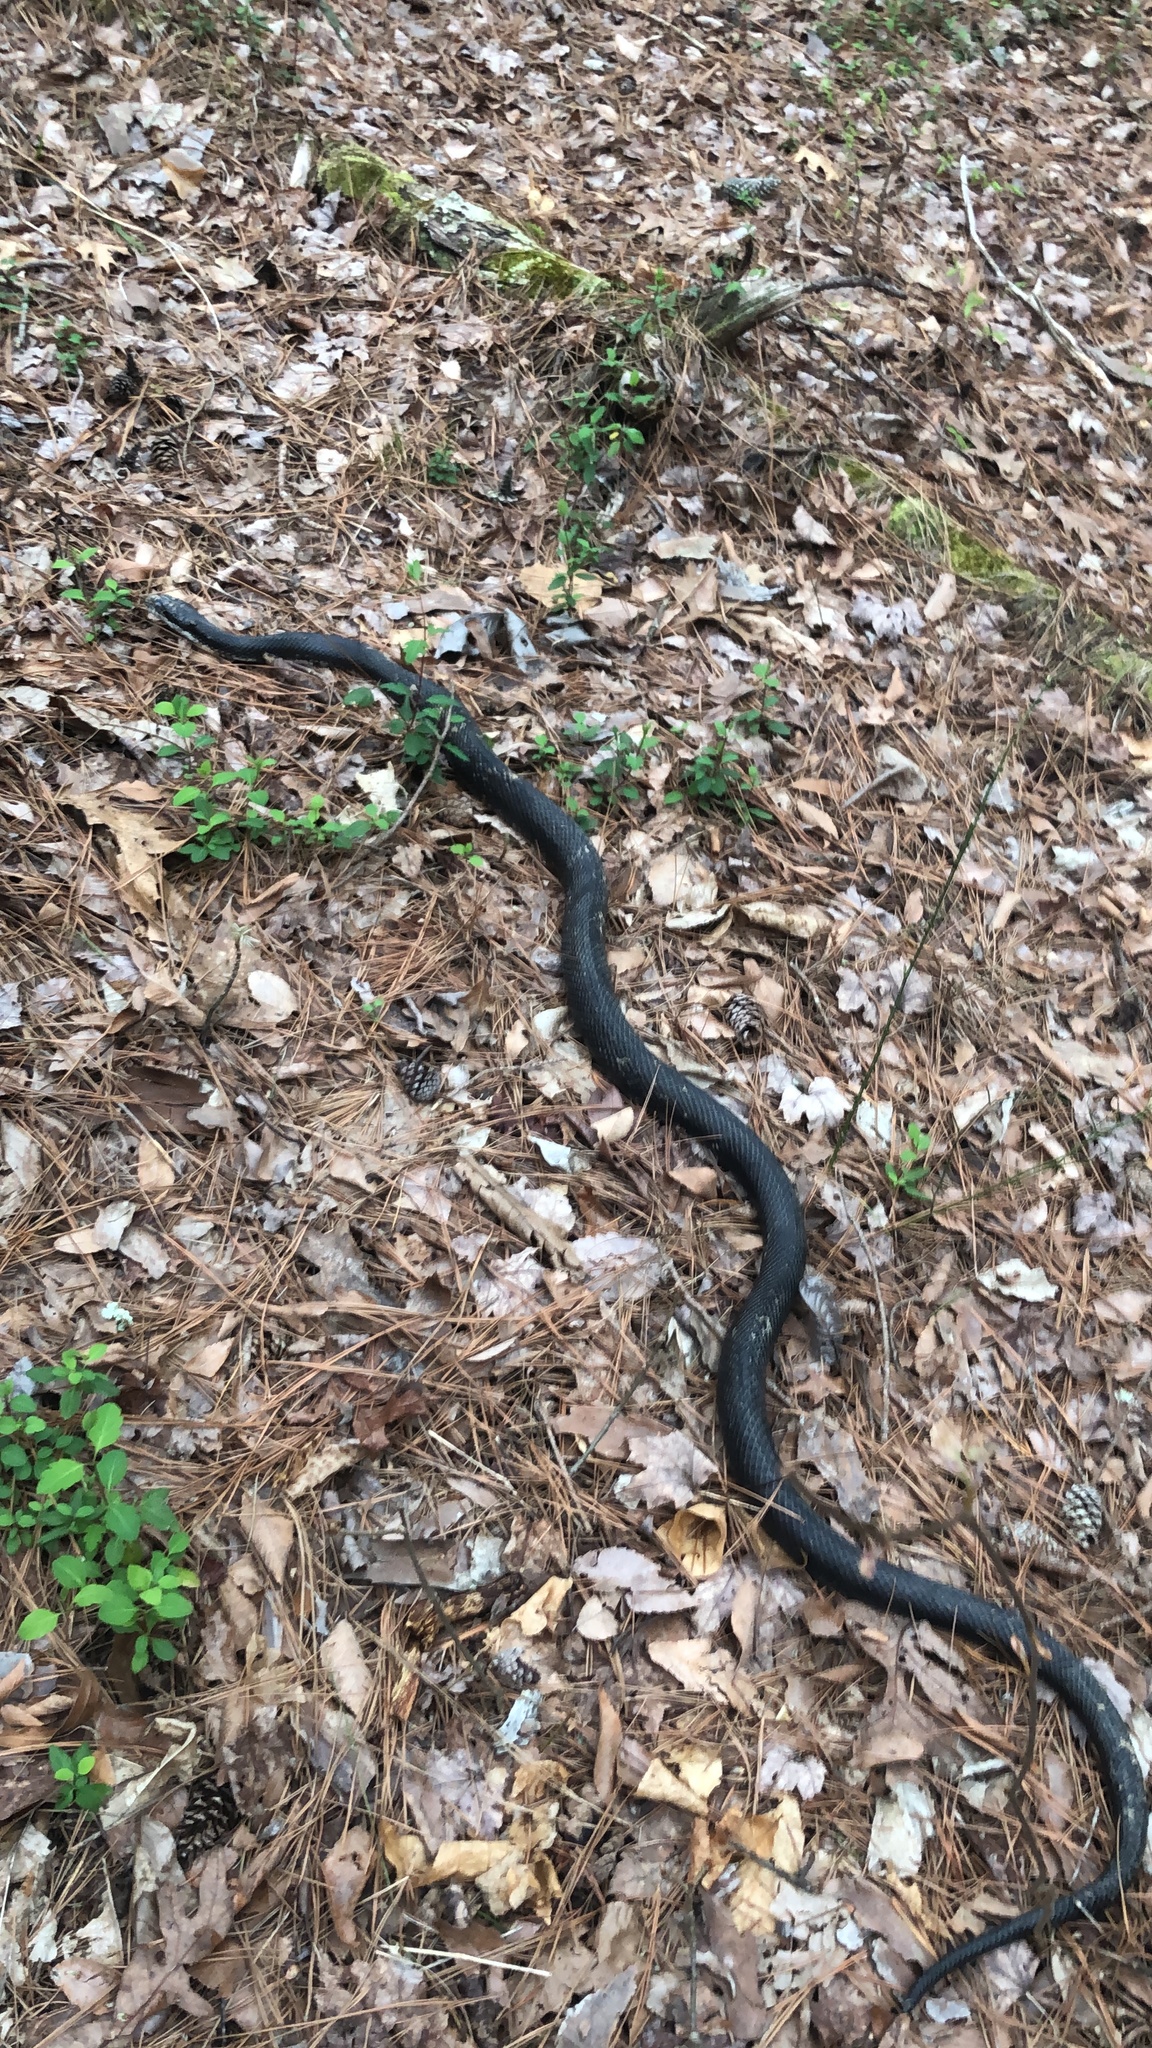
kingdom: Animalia
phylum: Chordata
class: Squamata
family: Colubridae
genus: Pantherophis
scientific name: Pantherophis alleghaniensis
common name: Eastern rat snake
